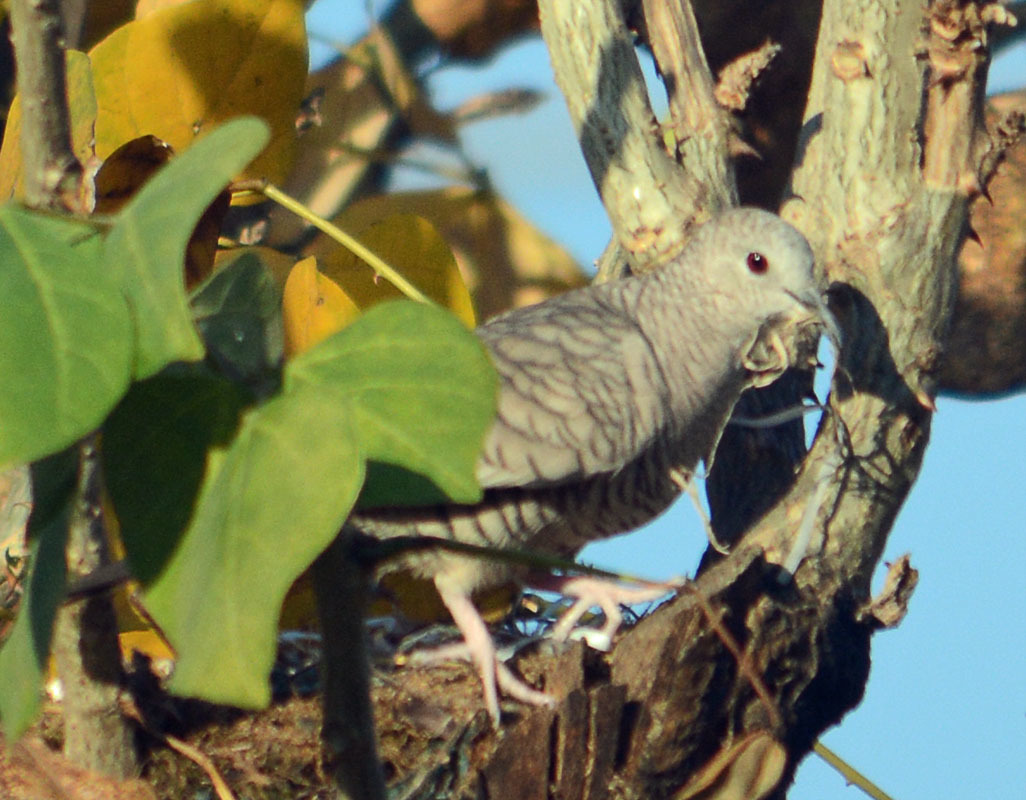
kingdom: Animalia
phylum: Chordata
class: Aves
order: Columbiformes
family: Columbidae
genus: Columbina
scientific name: Columbina inca
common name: Inca dove
